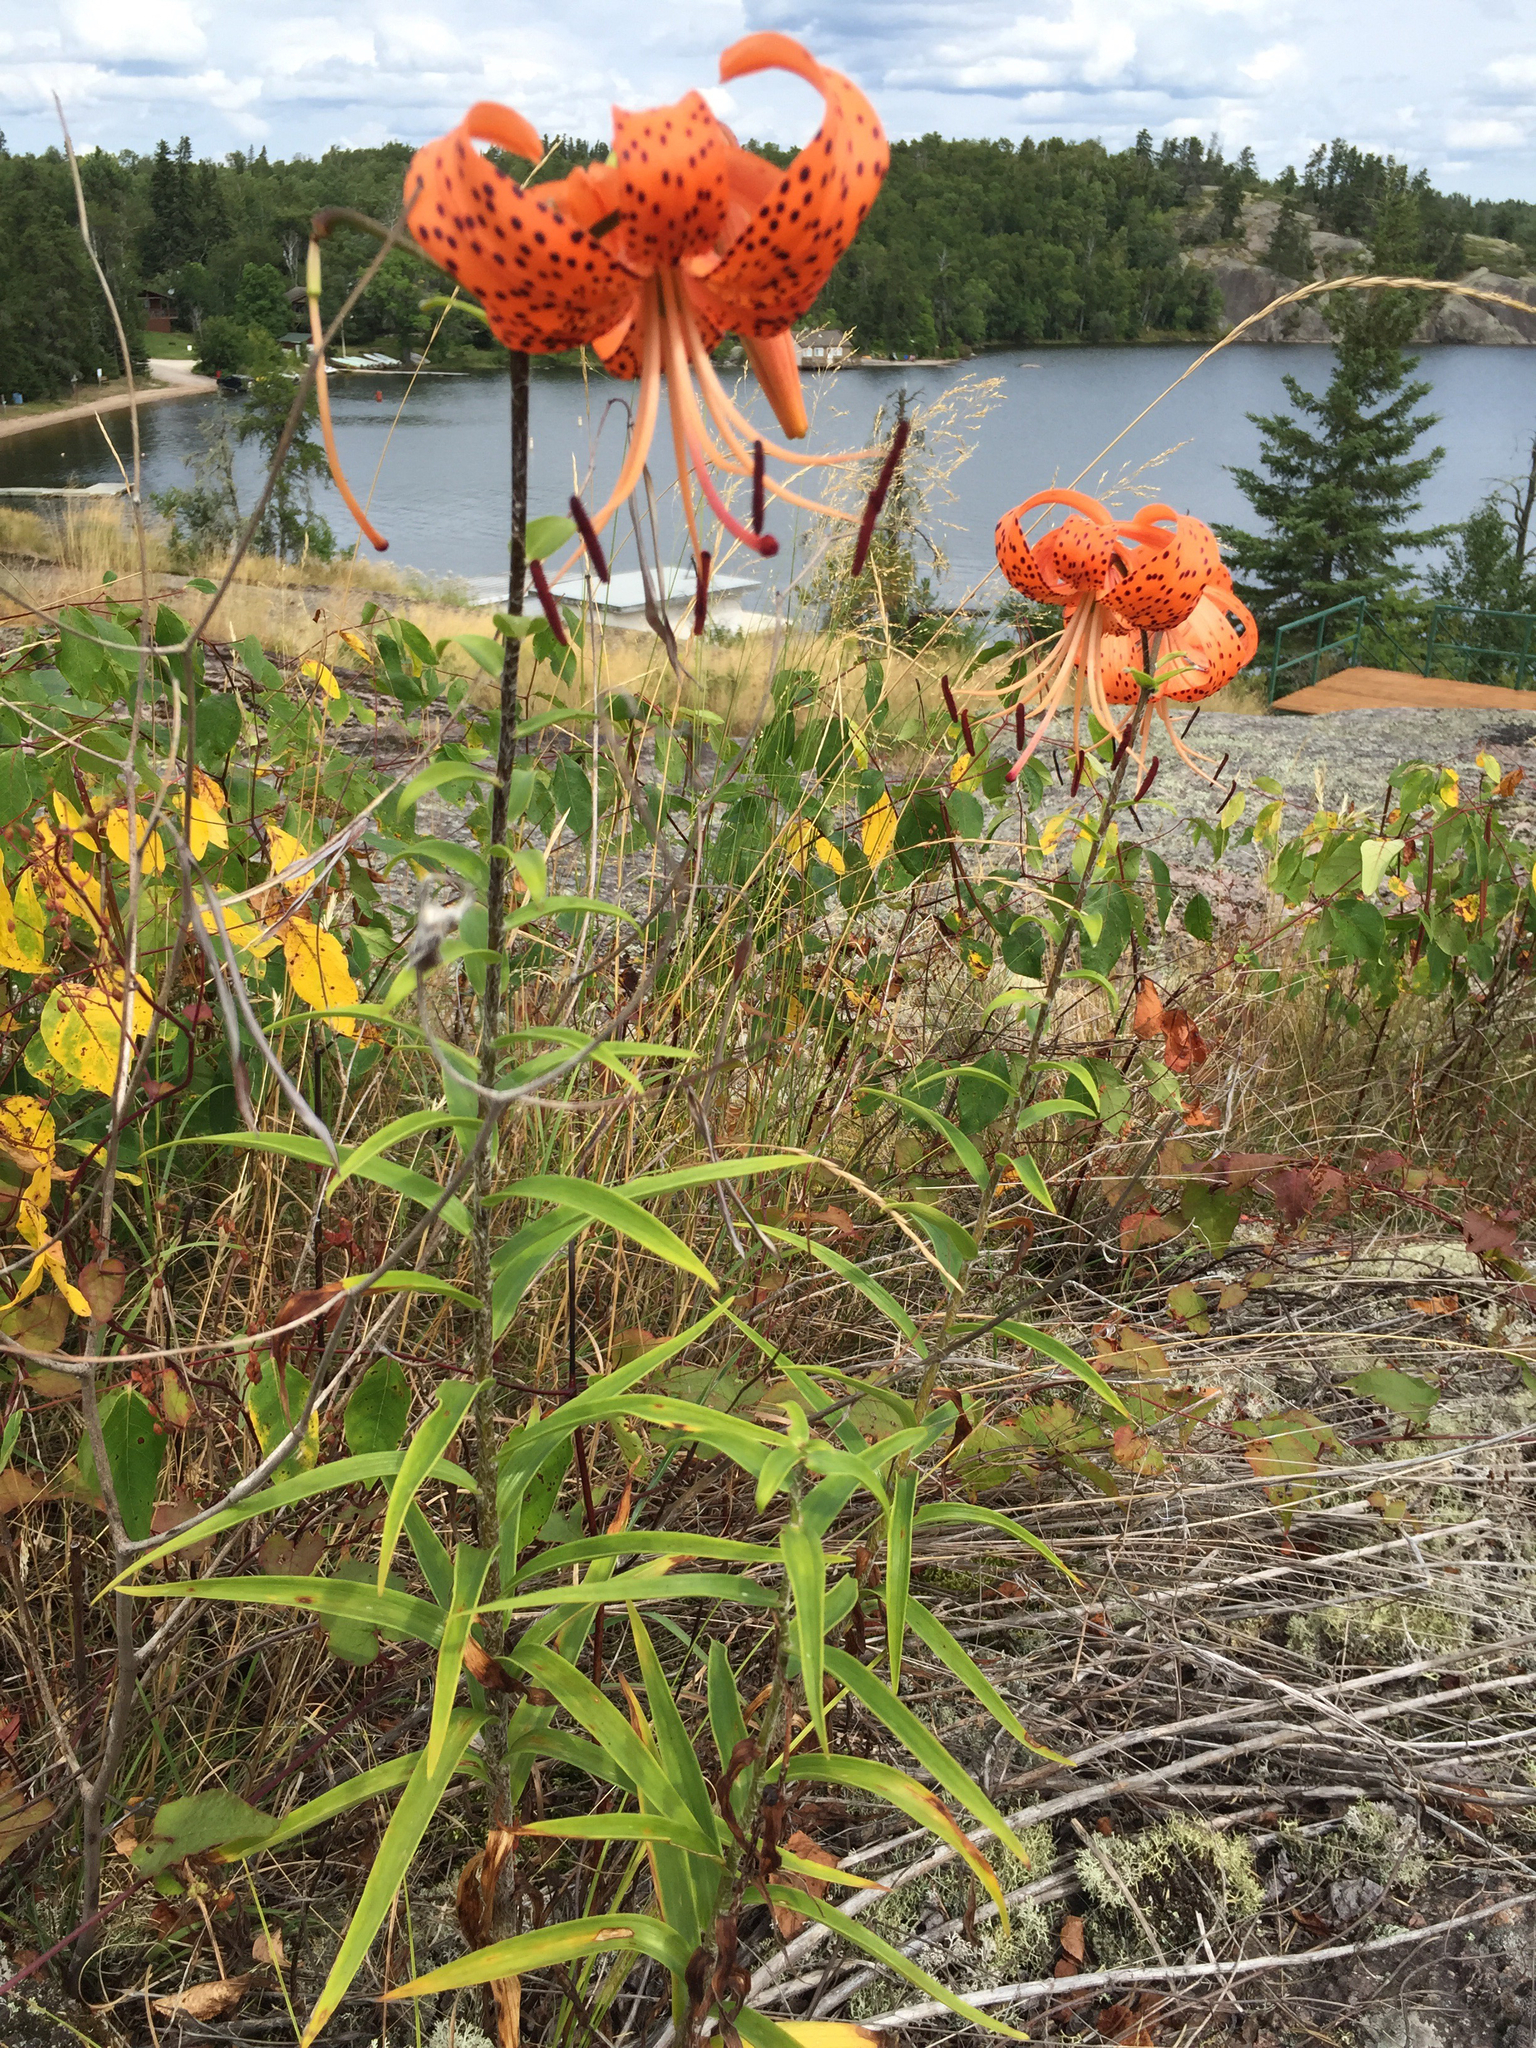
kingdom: Plantae
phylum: Tracheophyta
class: Liliopsida
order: Liliales
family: Liliaceae
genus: Lilium
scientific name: Lilium lancifolium
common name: Tiger lily
